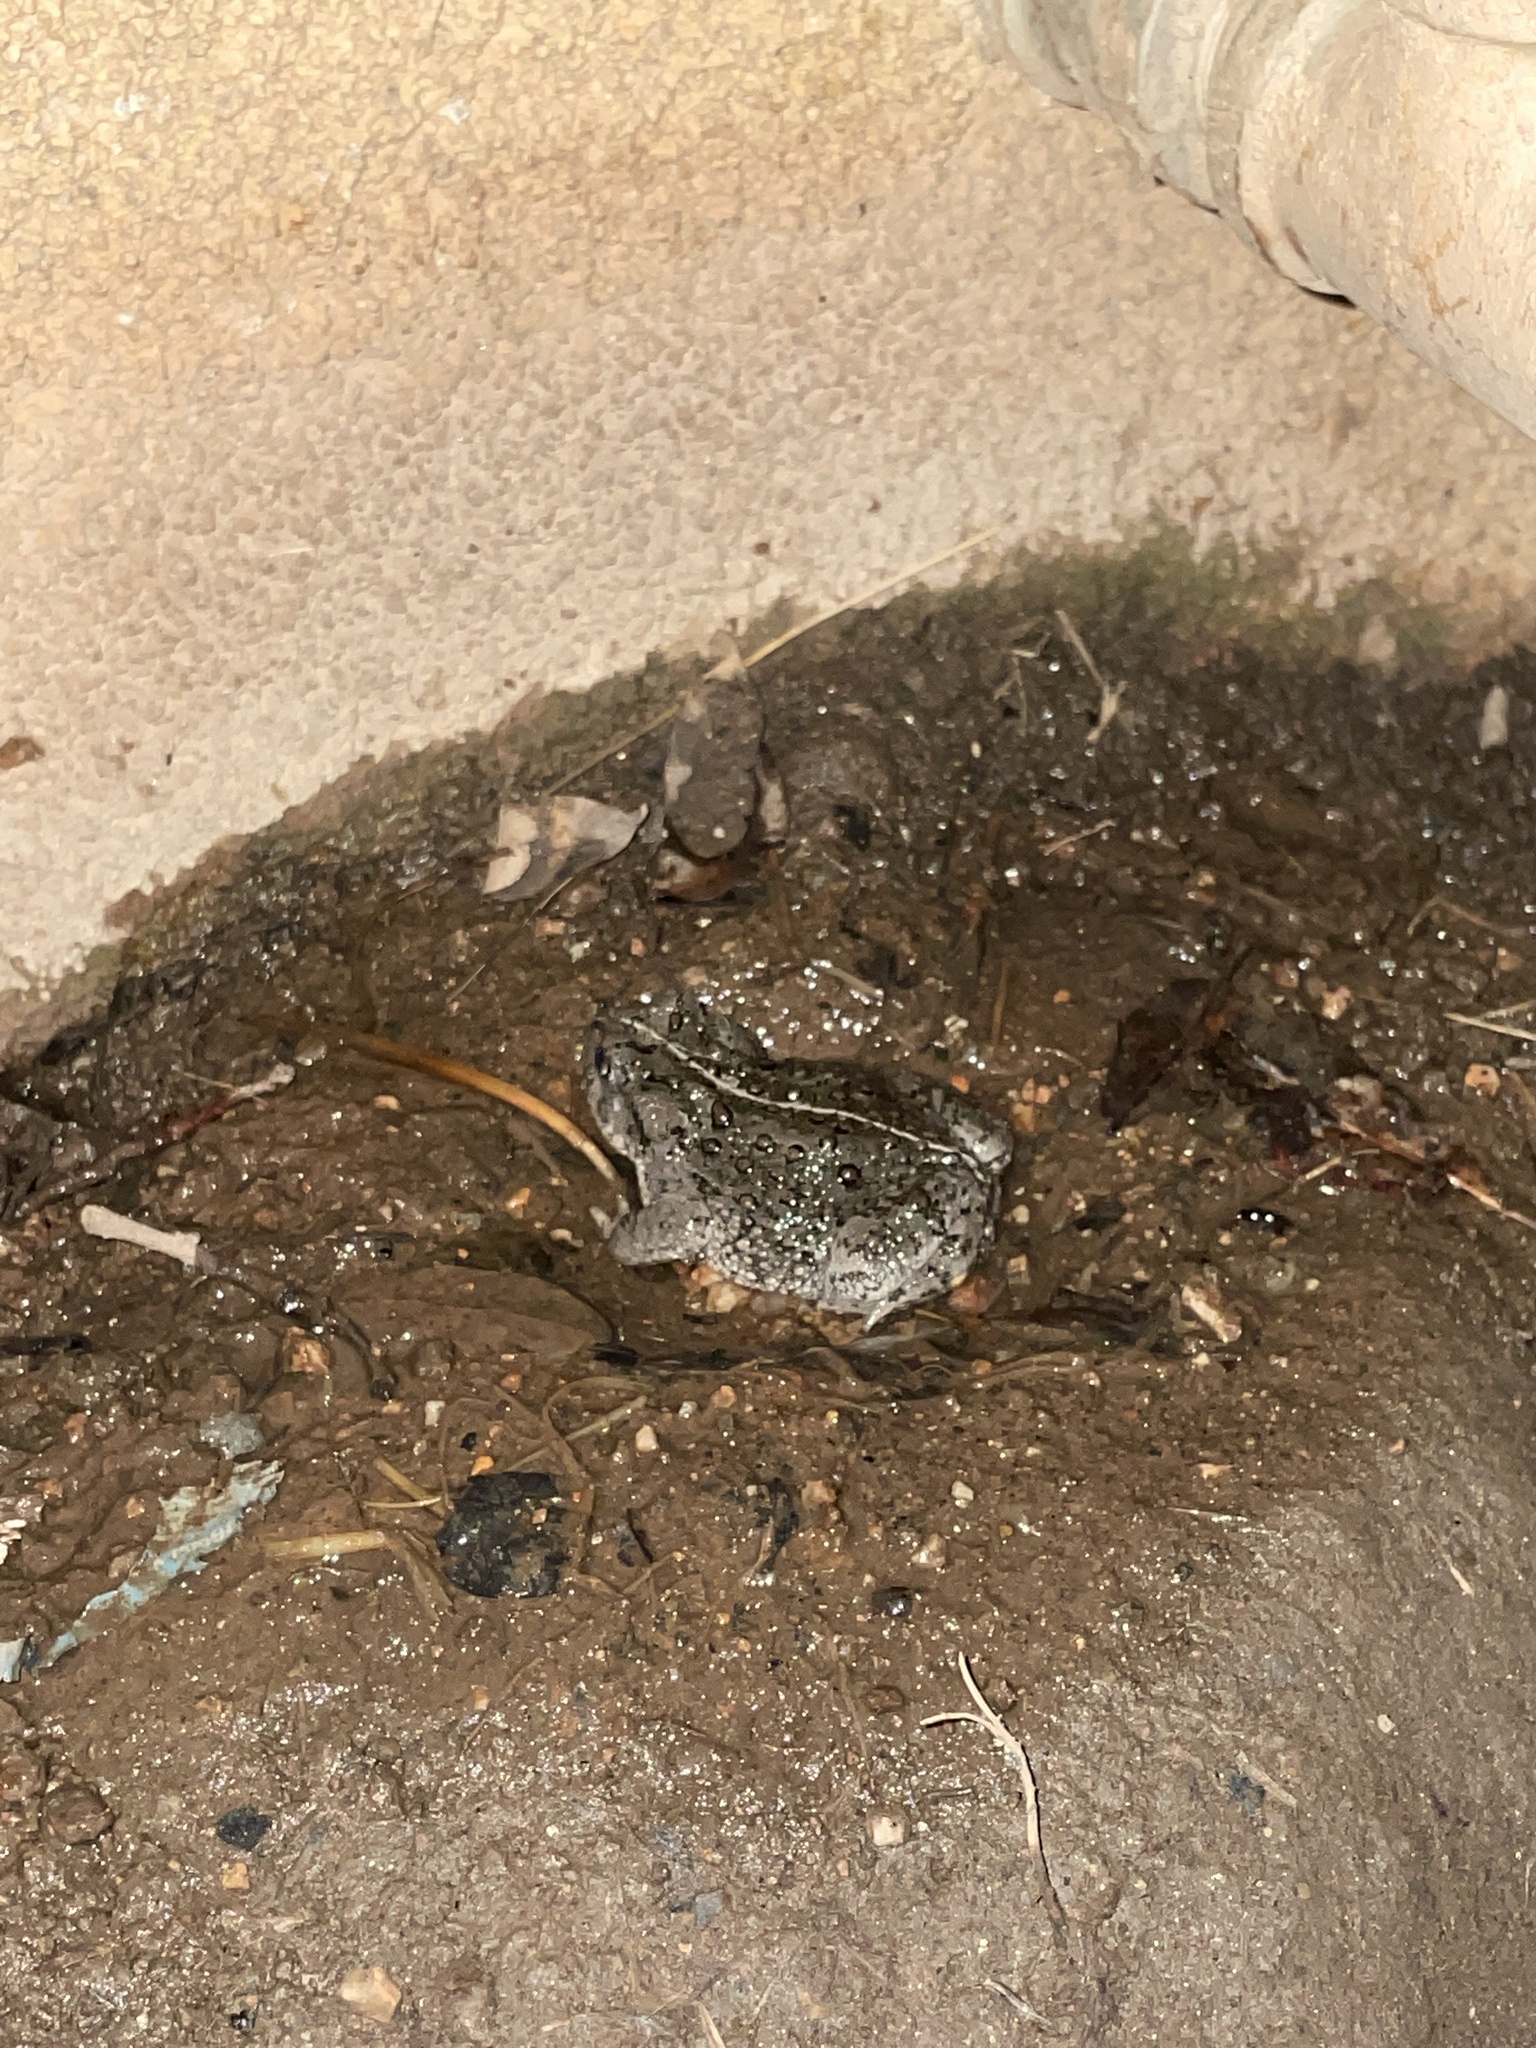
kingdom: Animalia
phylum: Chordata
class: Amphibia
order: Anura
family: Bufonidae
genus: Anaxyrus
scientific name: Anaxyrus boreas
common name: Western toad
